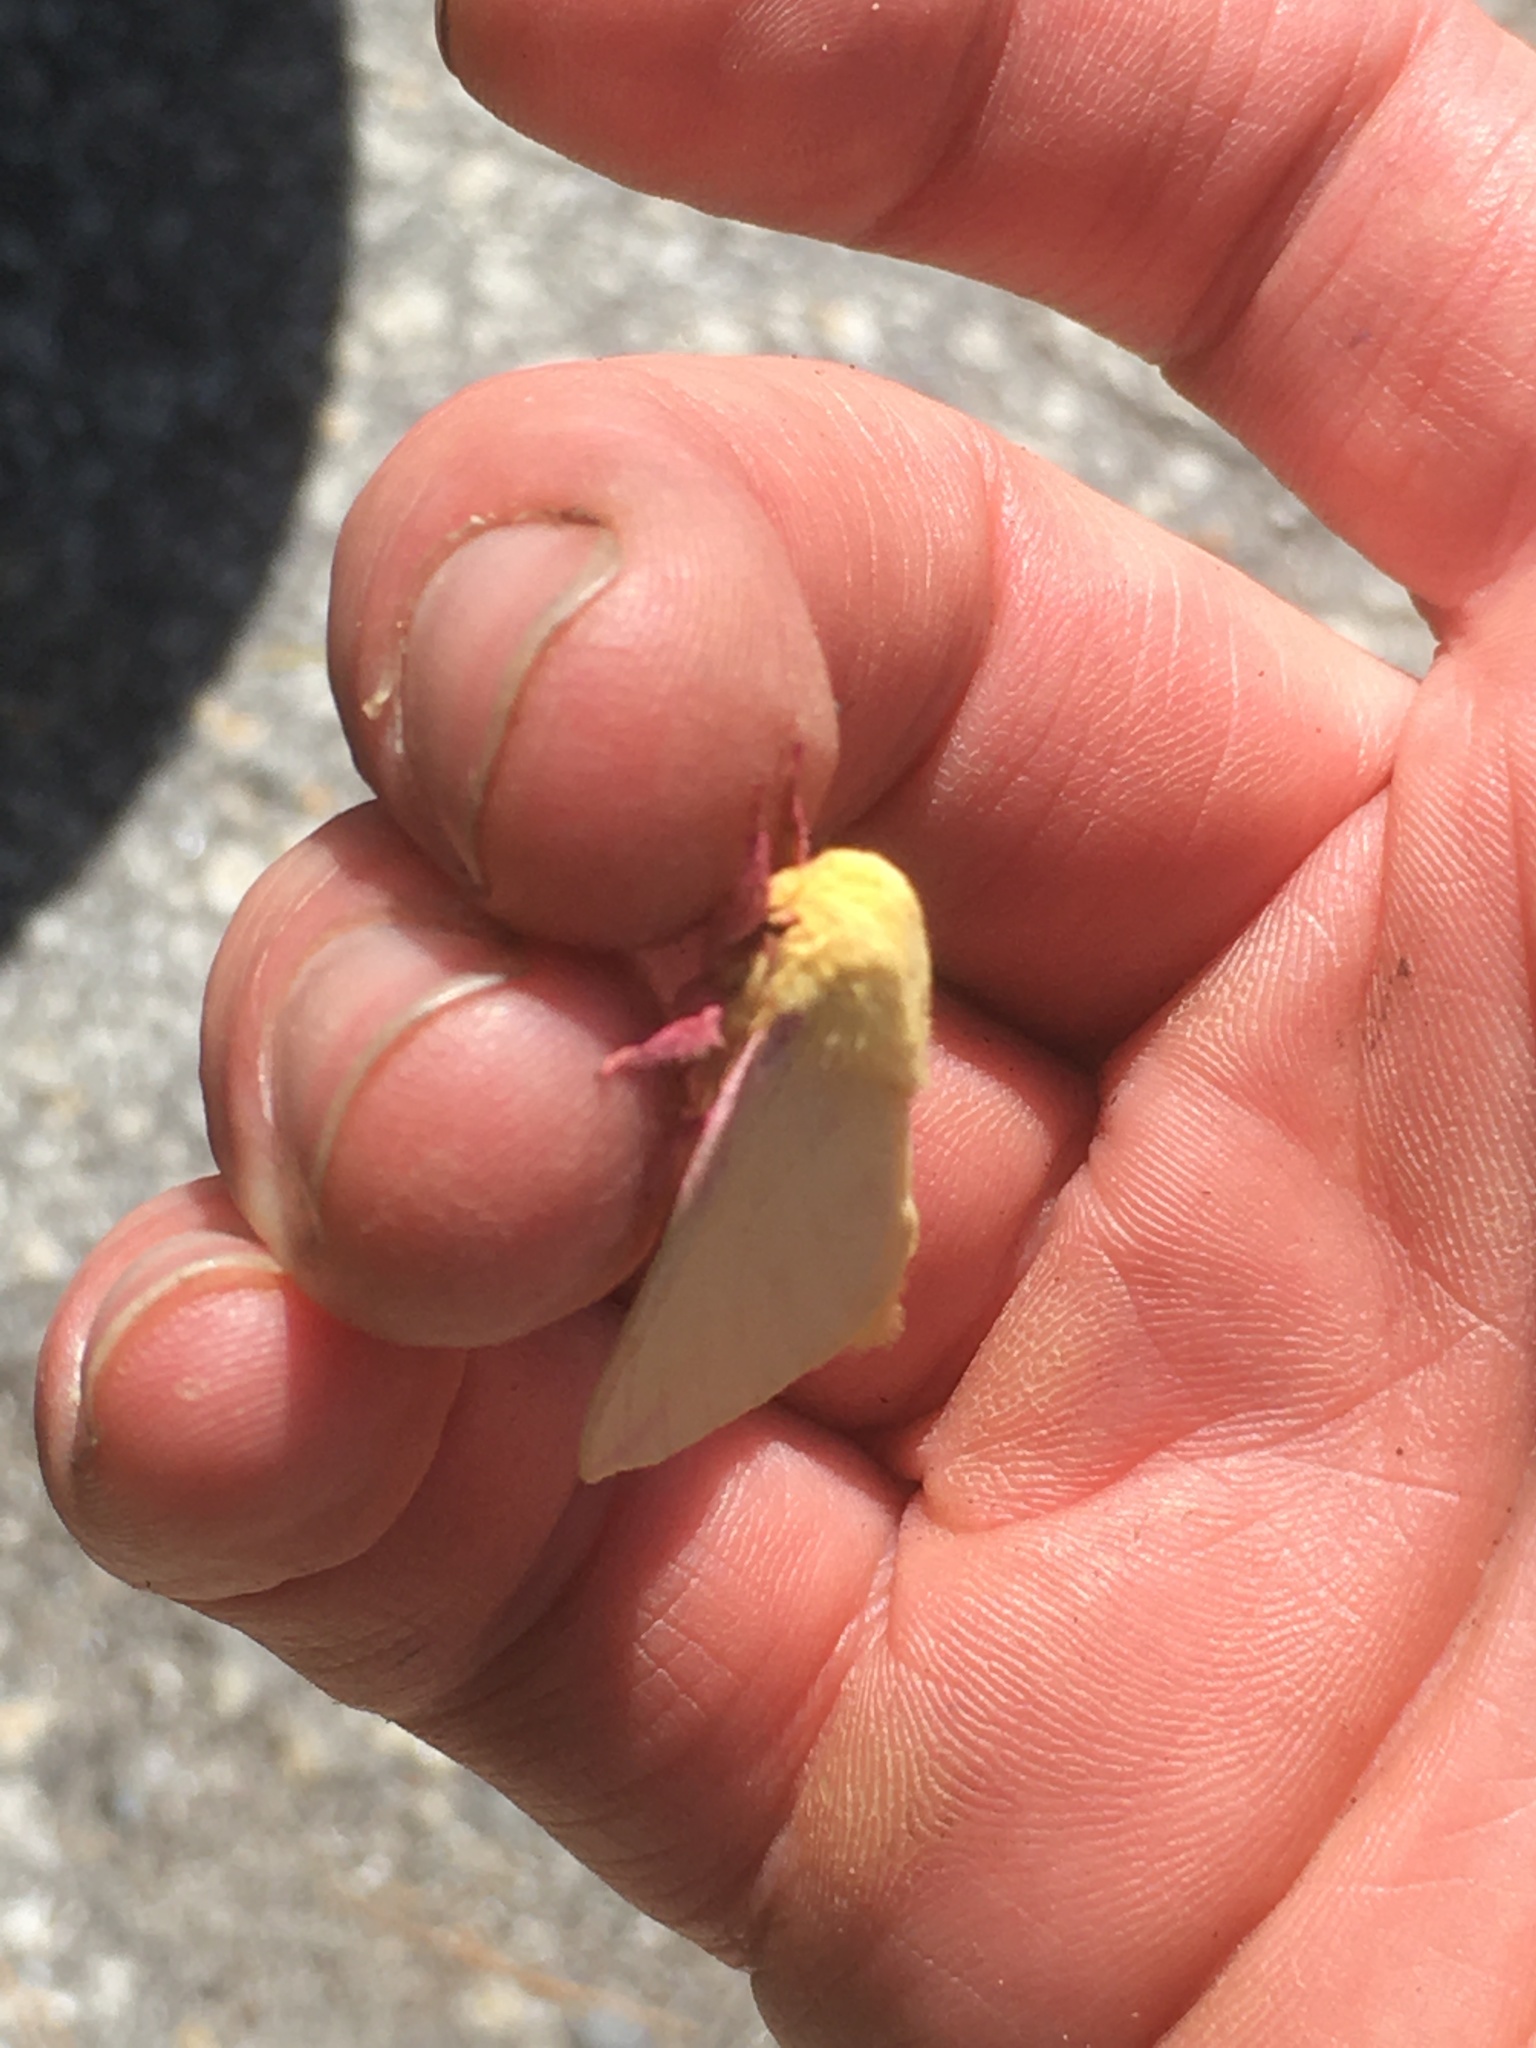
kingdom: Animalia
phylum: Arthropoda
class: Insecta
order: Lepidoptera
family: Saturniidae
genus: Dryocampa
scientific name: Dryocampa rubicunda
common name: Rosy maple moth
